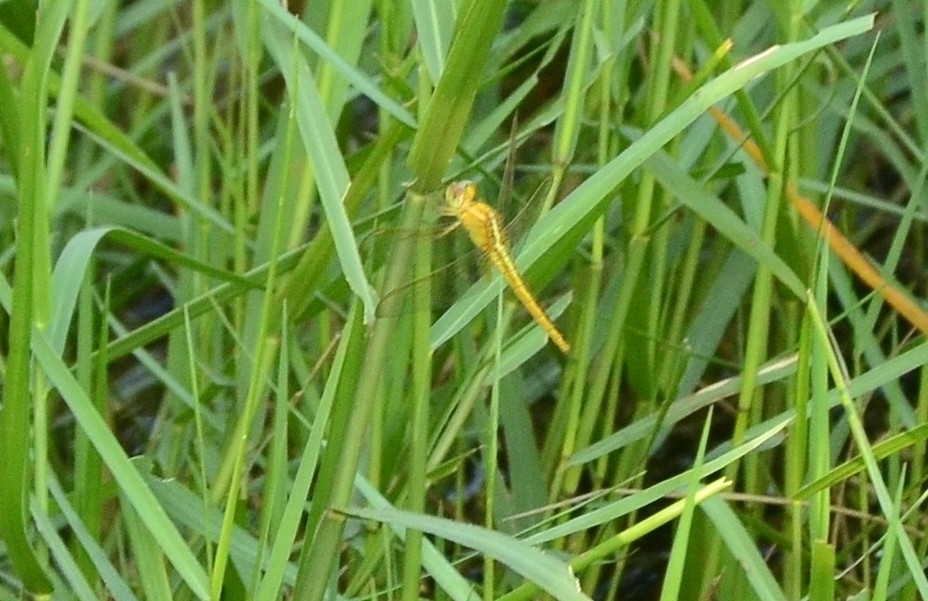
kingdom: Animalia
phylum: Arthropoda
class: Insecta
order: Odonata
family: Libellulidae
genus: Crocothemis
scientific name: Crocothemis servilia
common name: Scarlet skimmer
